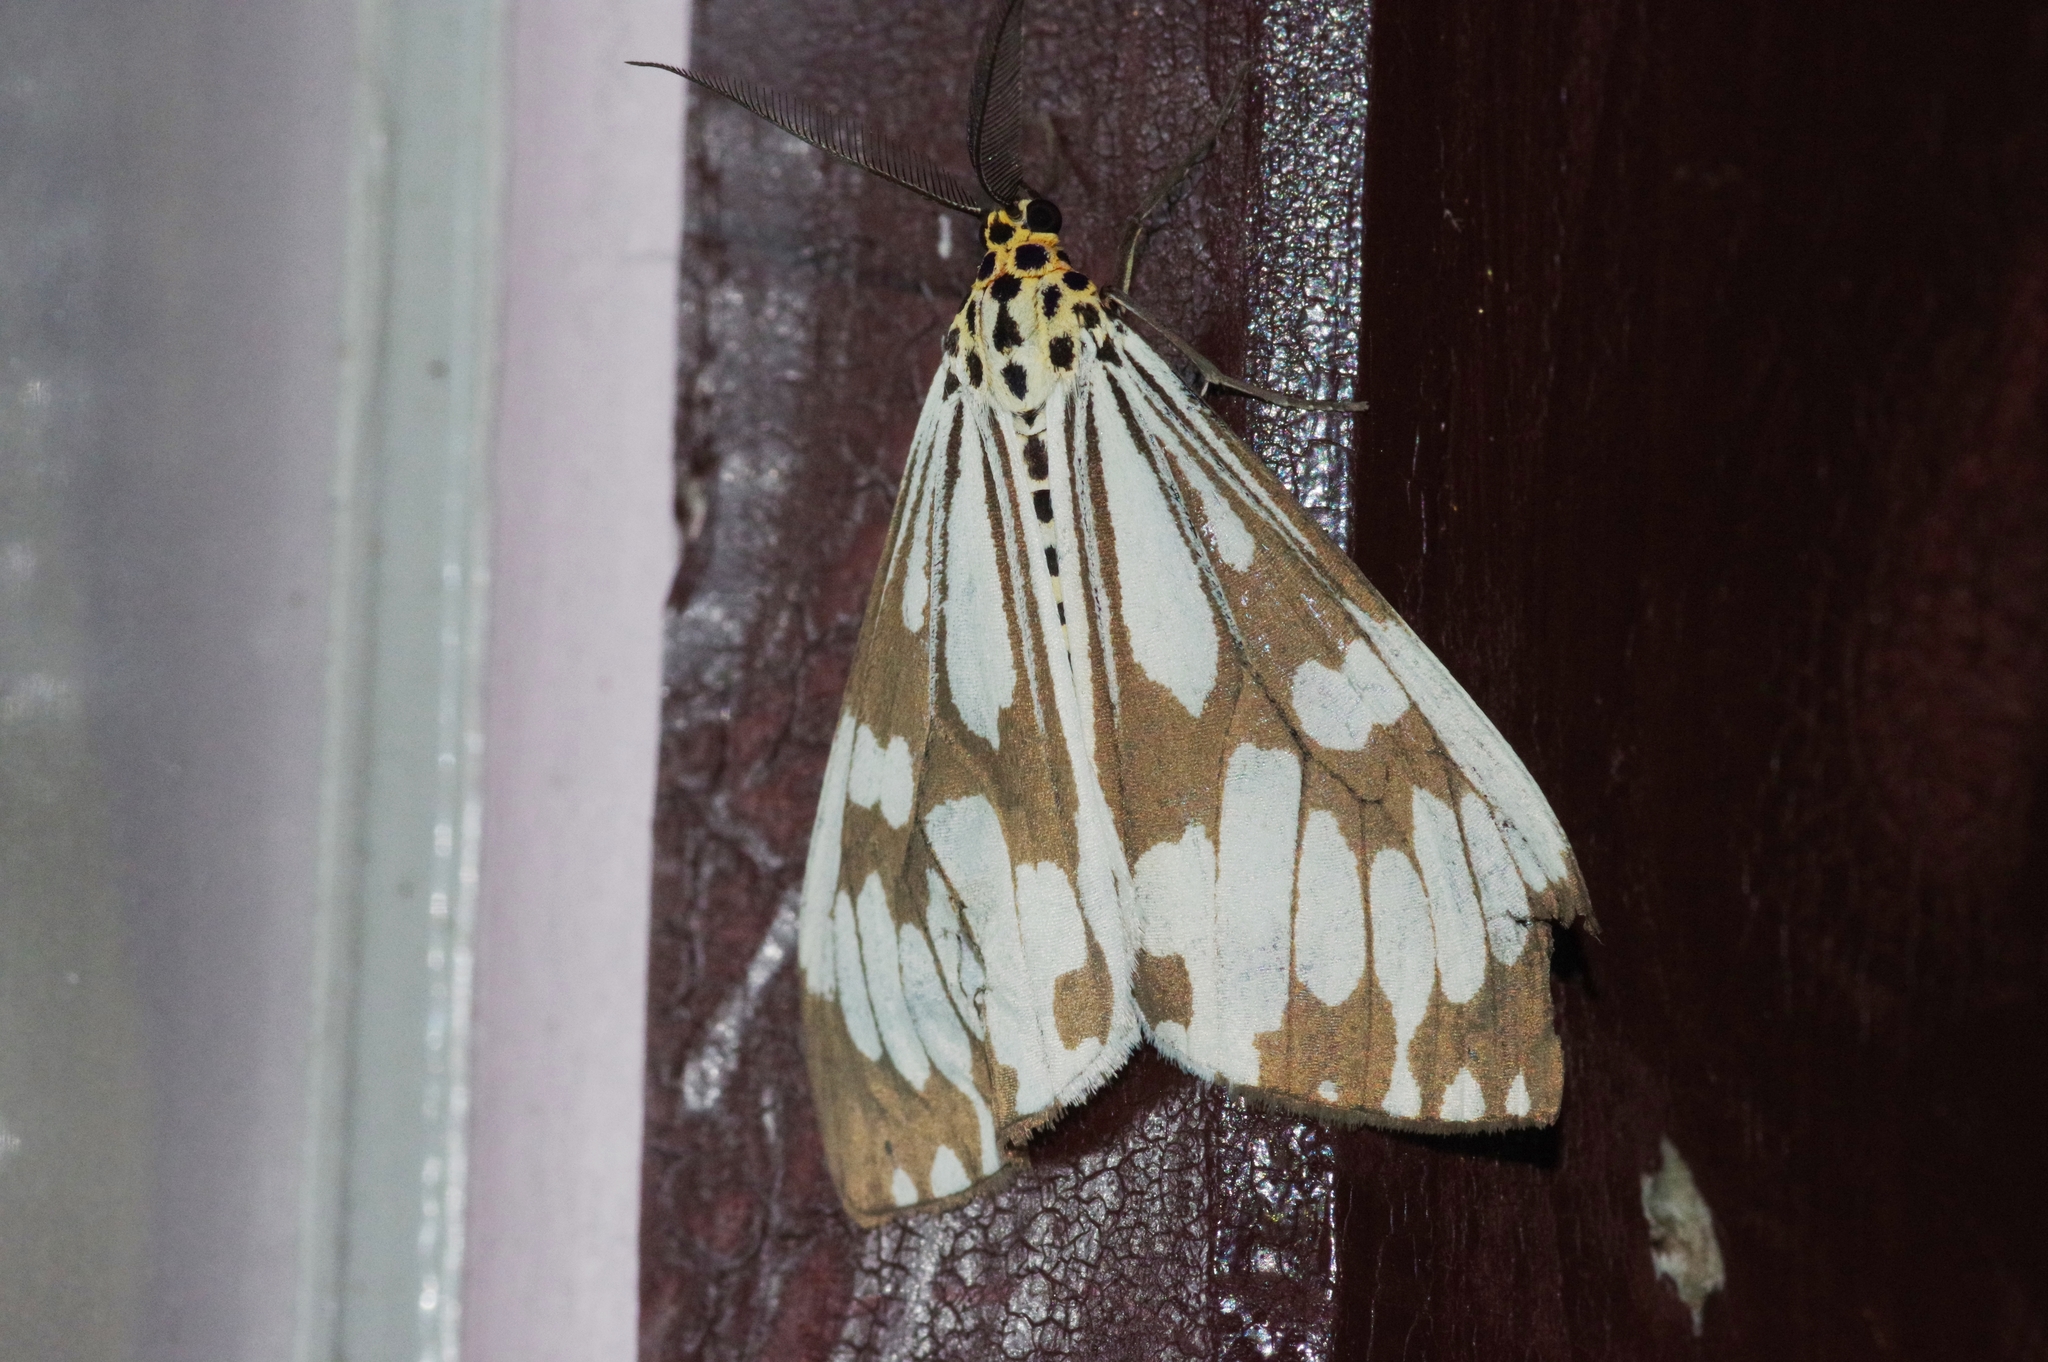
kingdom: Animalia
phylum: Arthropoda
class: Insecta
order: Lepidoptera
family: Erebidae
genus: Nyctemera
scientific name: Nyctemera adversata
